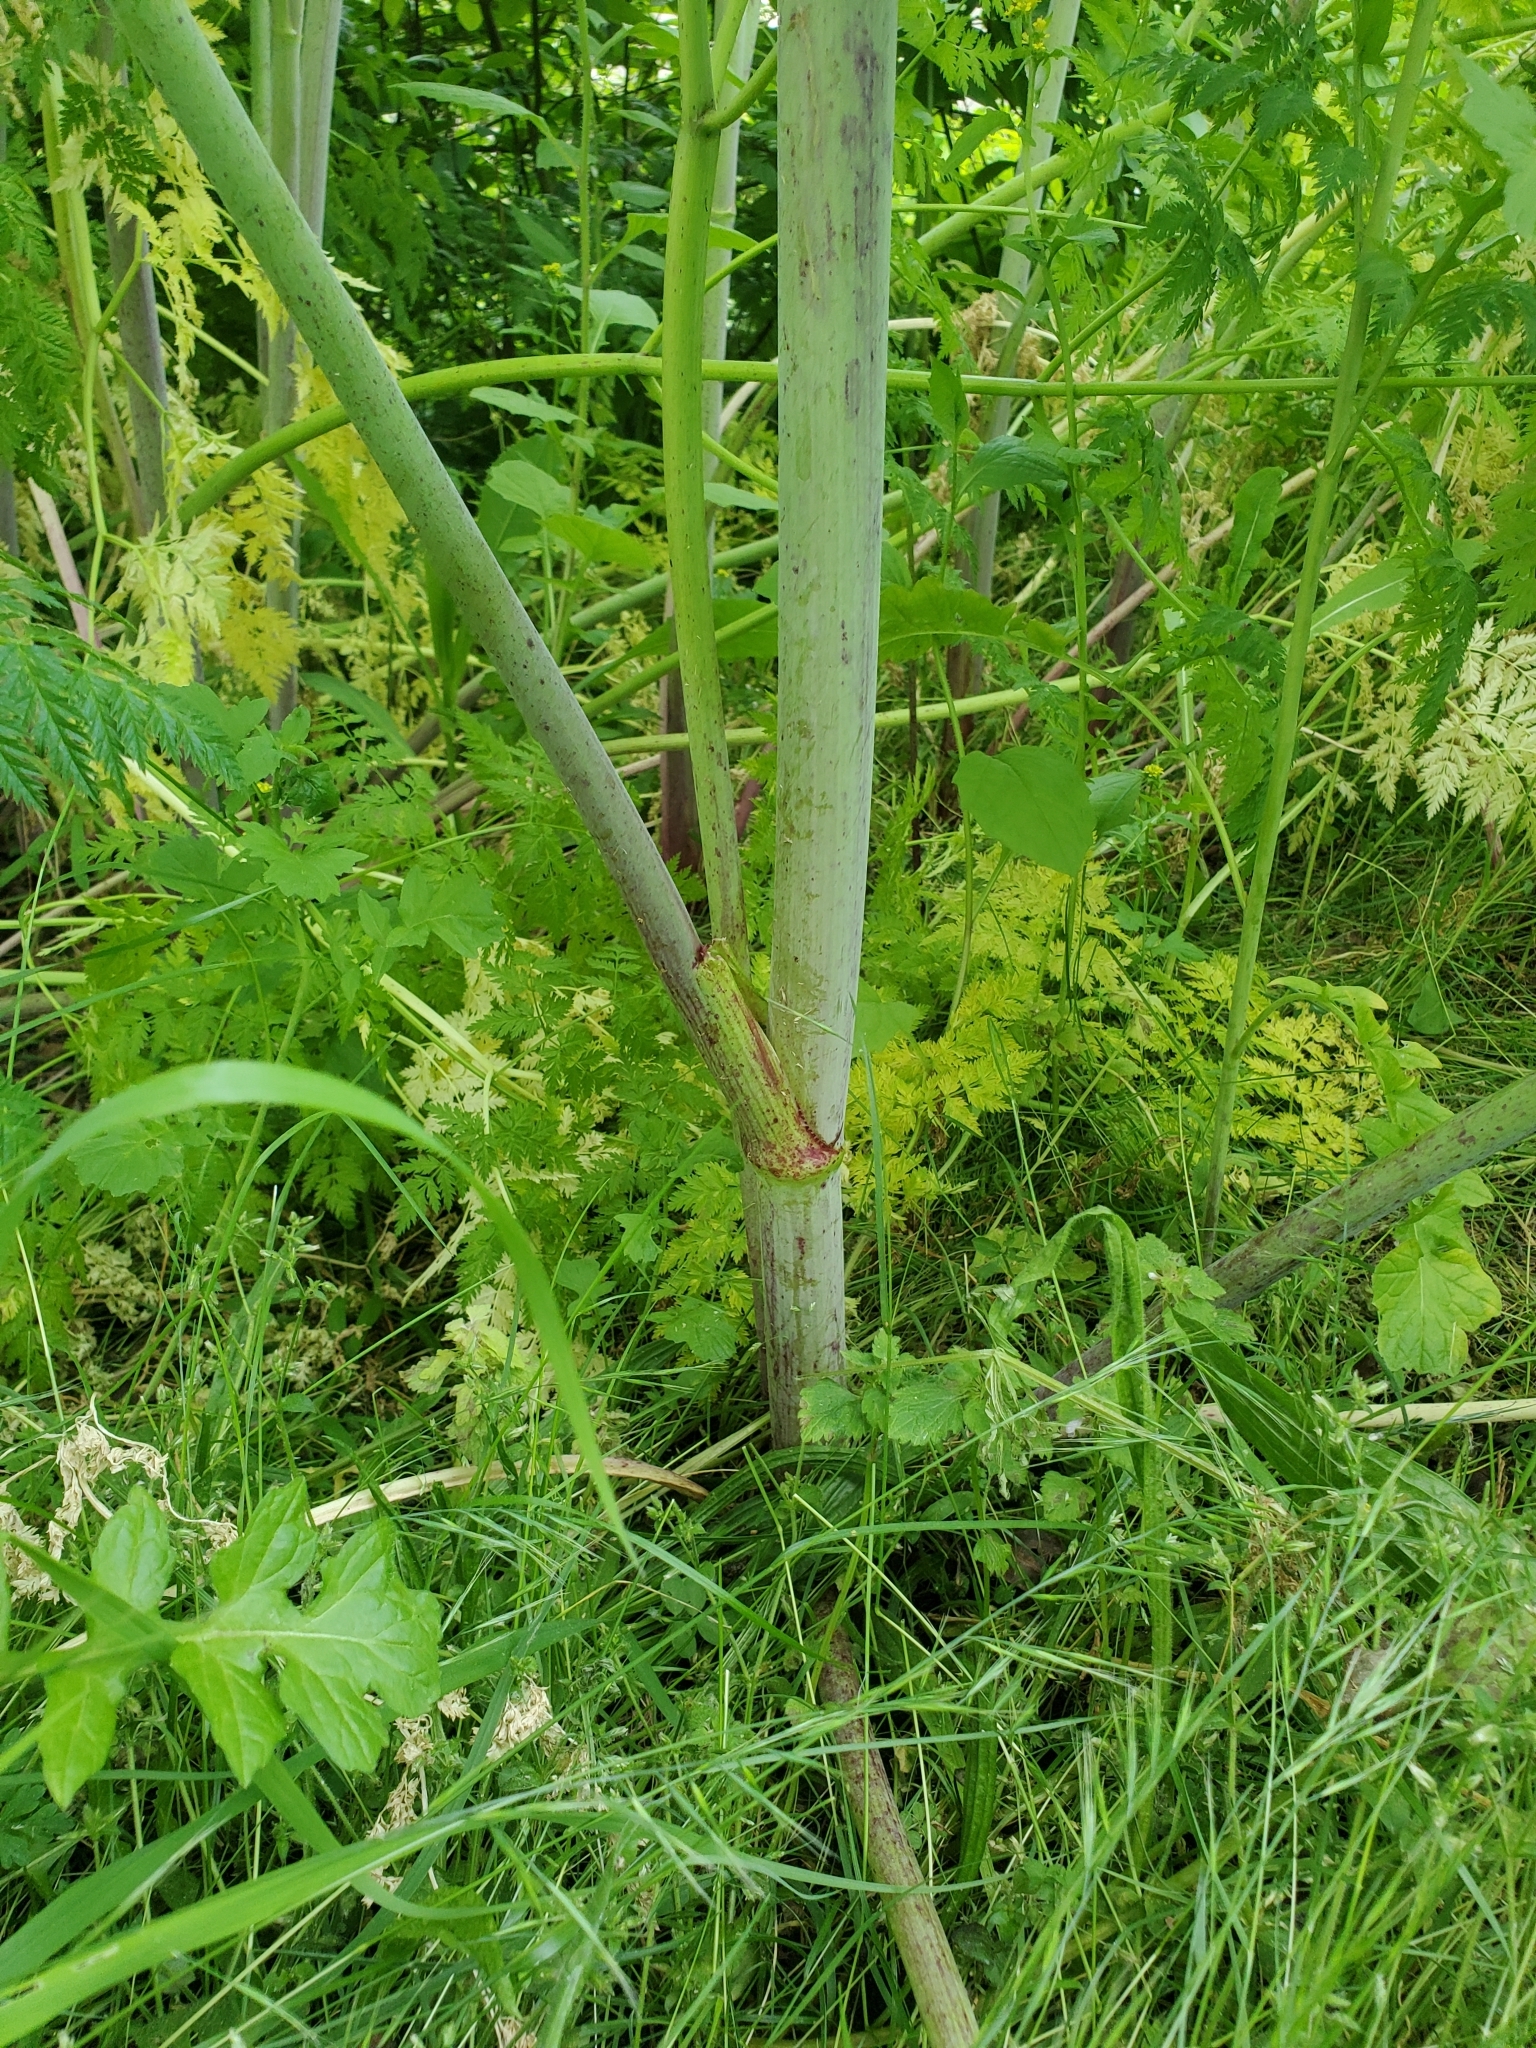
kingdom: Plantae
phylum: Tracheophyta
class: Magnoliopsida
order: Apiales
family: Apiaceae
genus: Conium
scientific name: Conium maculatum
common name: Hemlock
